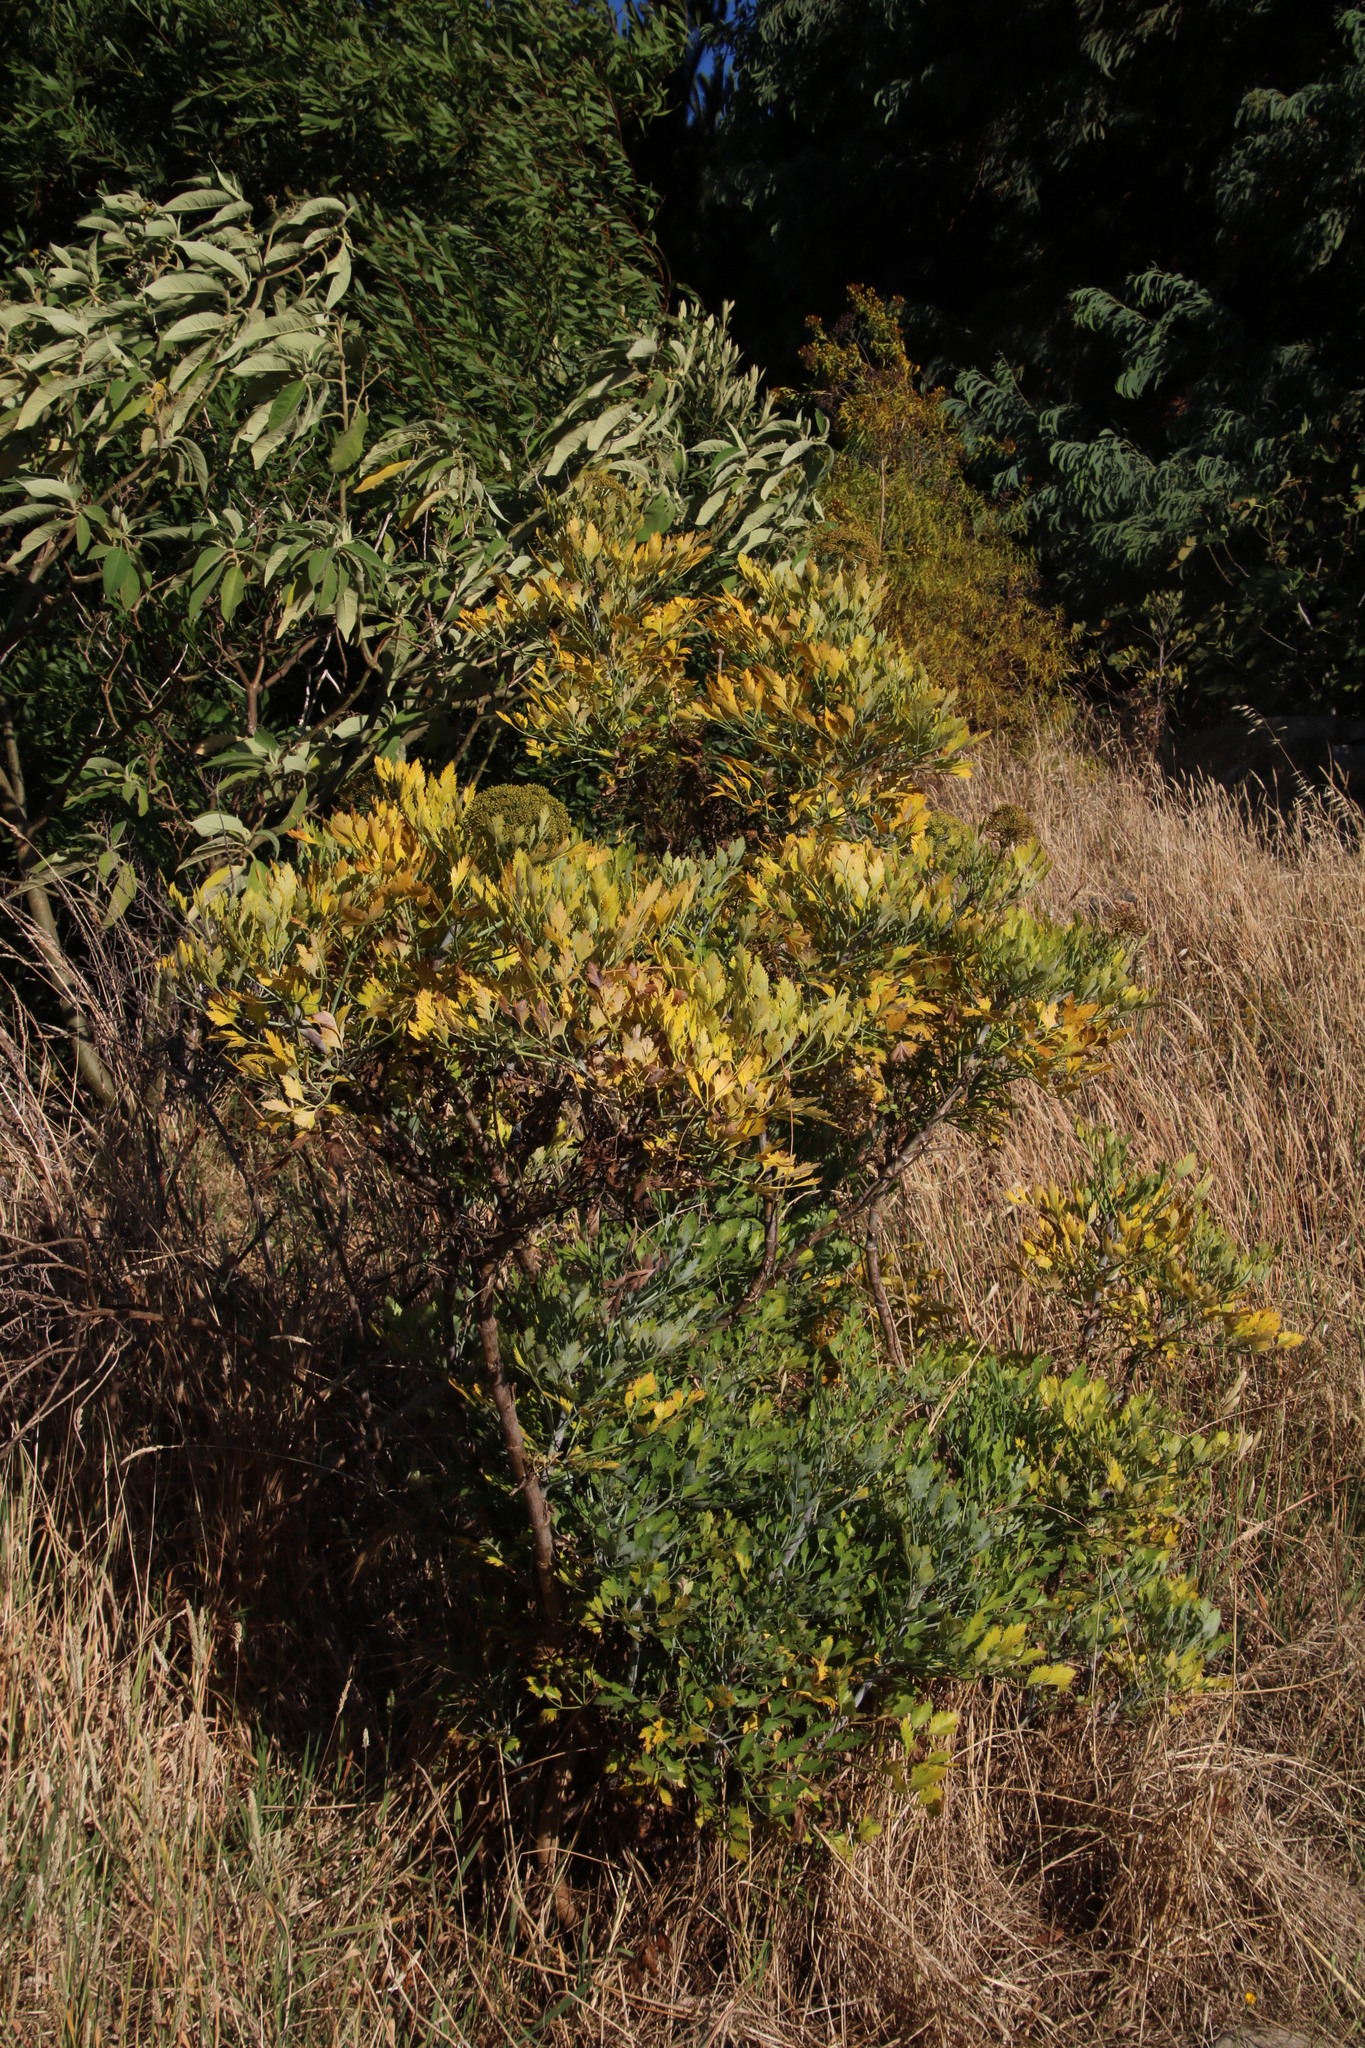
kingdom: Plantae
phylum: Tracheophyta
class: Magnoliopsida
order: Apiales
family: Apiaceae
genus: Notobubon
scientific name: Notobubon galbanum
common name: Blisterbush
